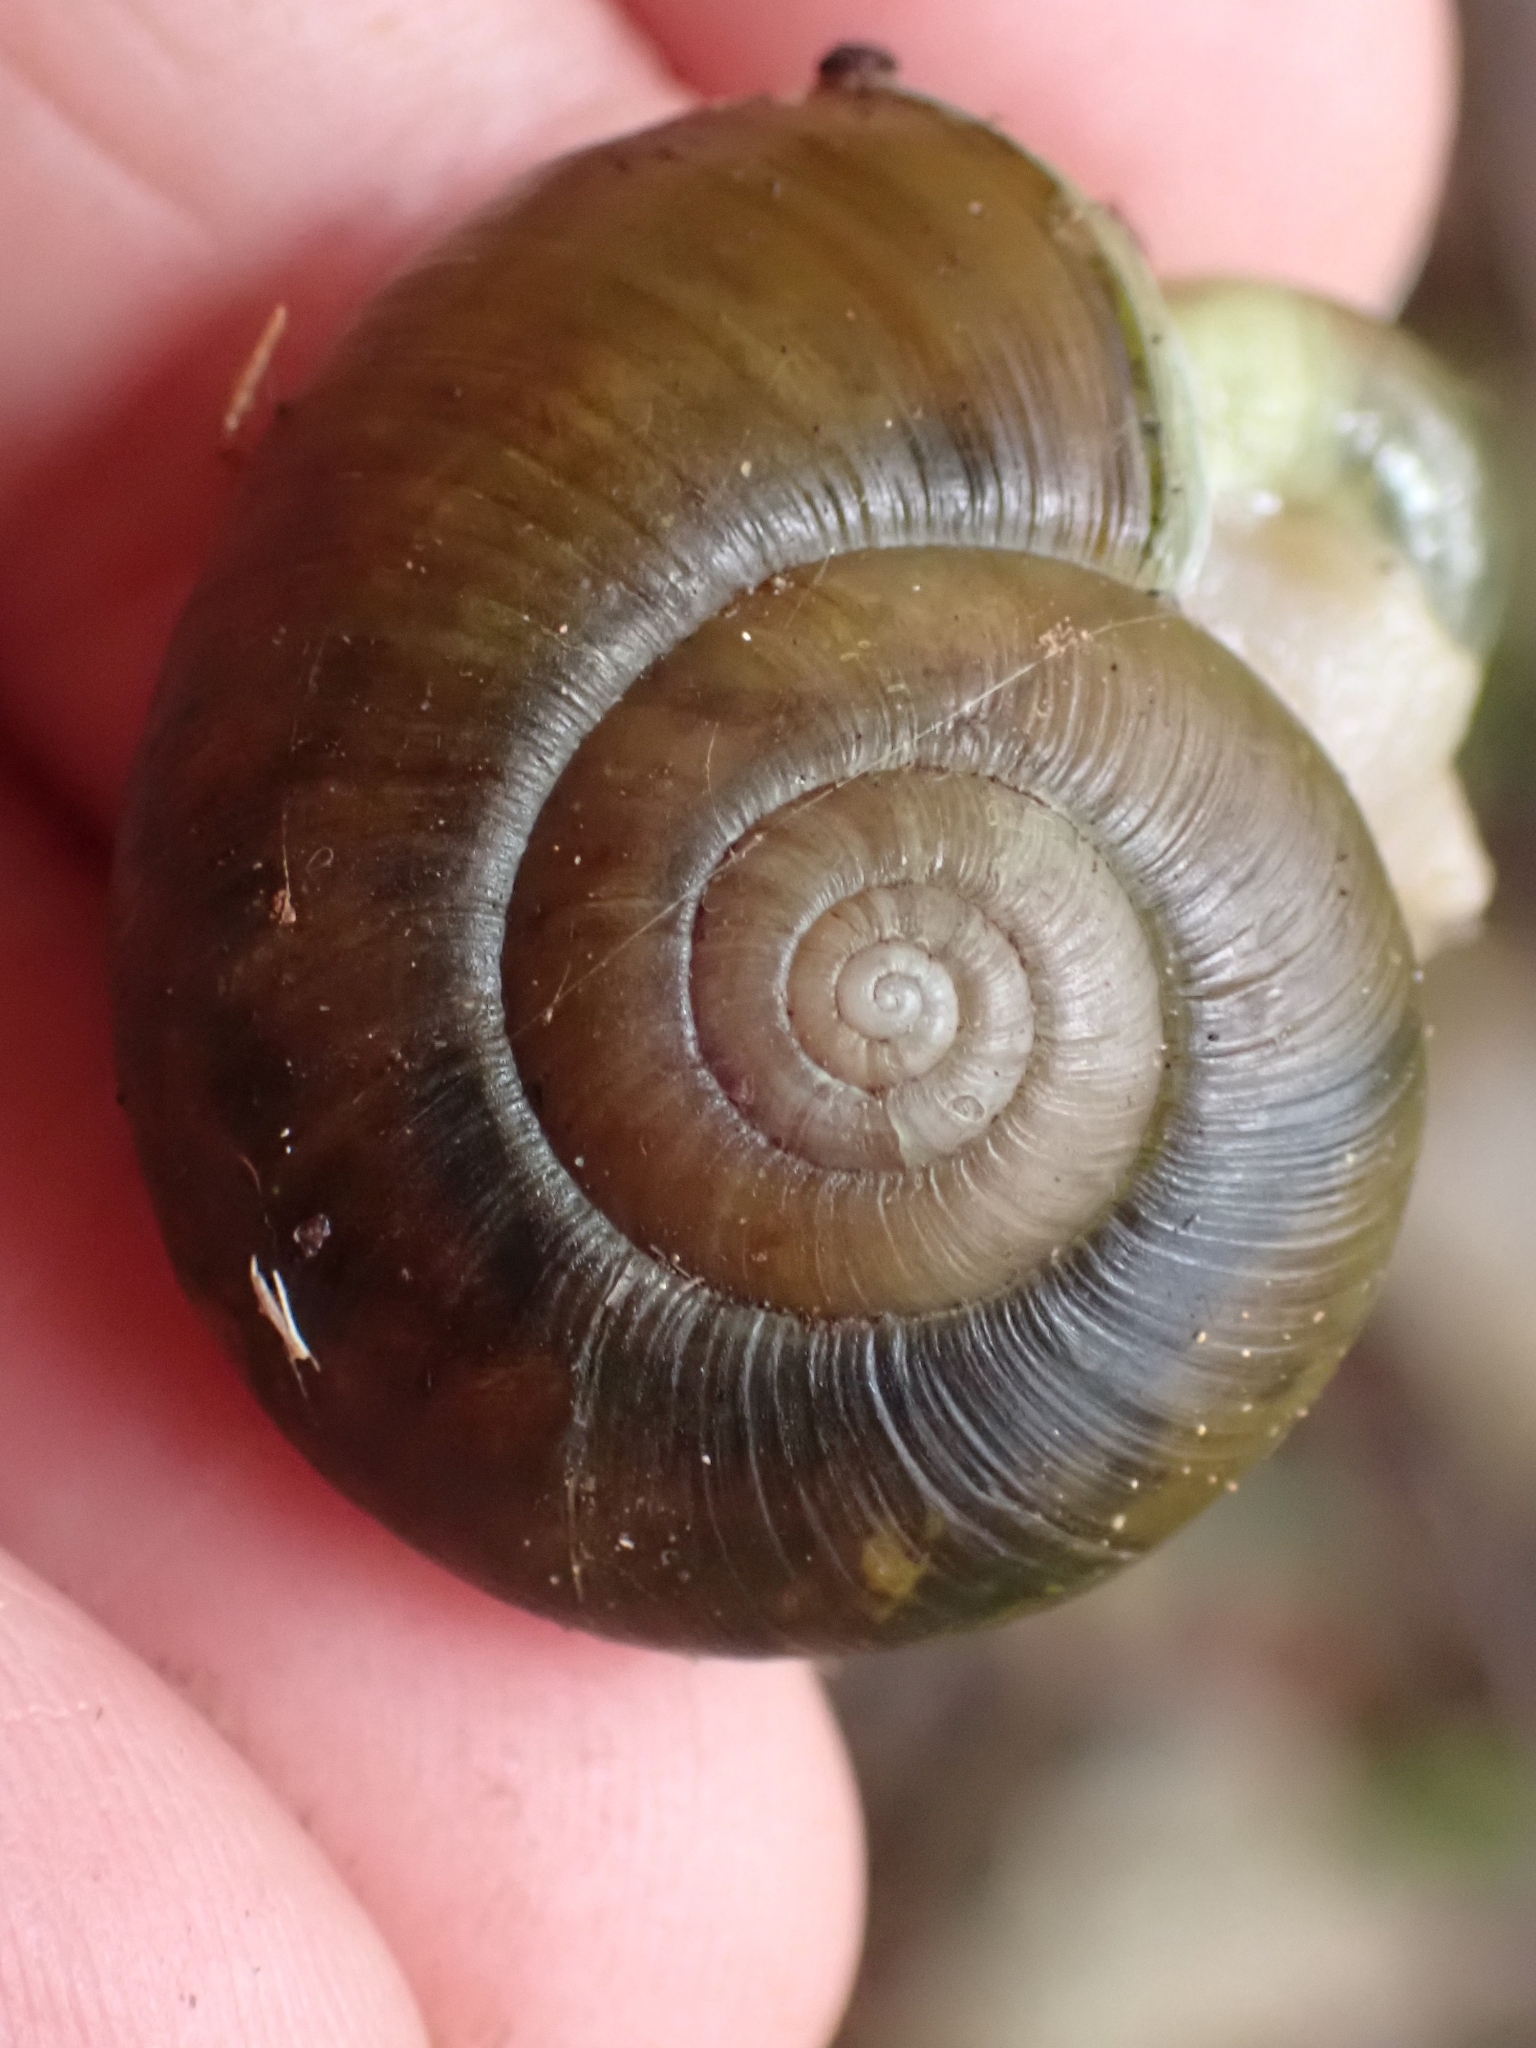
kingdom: Animalia
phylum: Mollusca
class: Gastropoda
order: Stylommatophora
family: Haplotrematidae
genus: Haplotrema
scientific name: Haplotrema vancouverense
